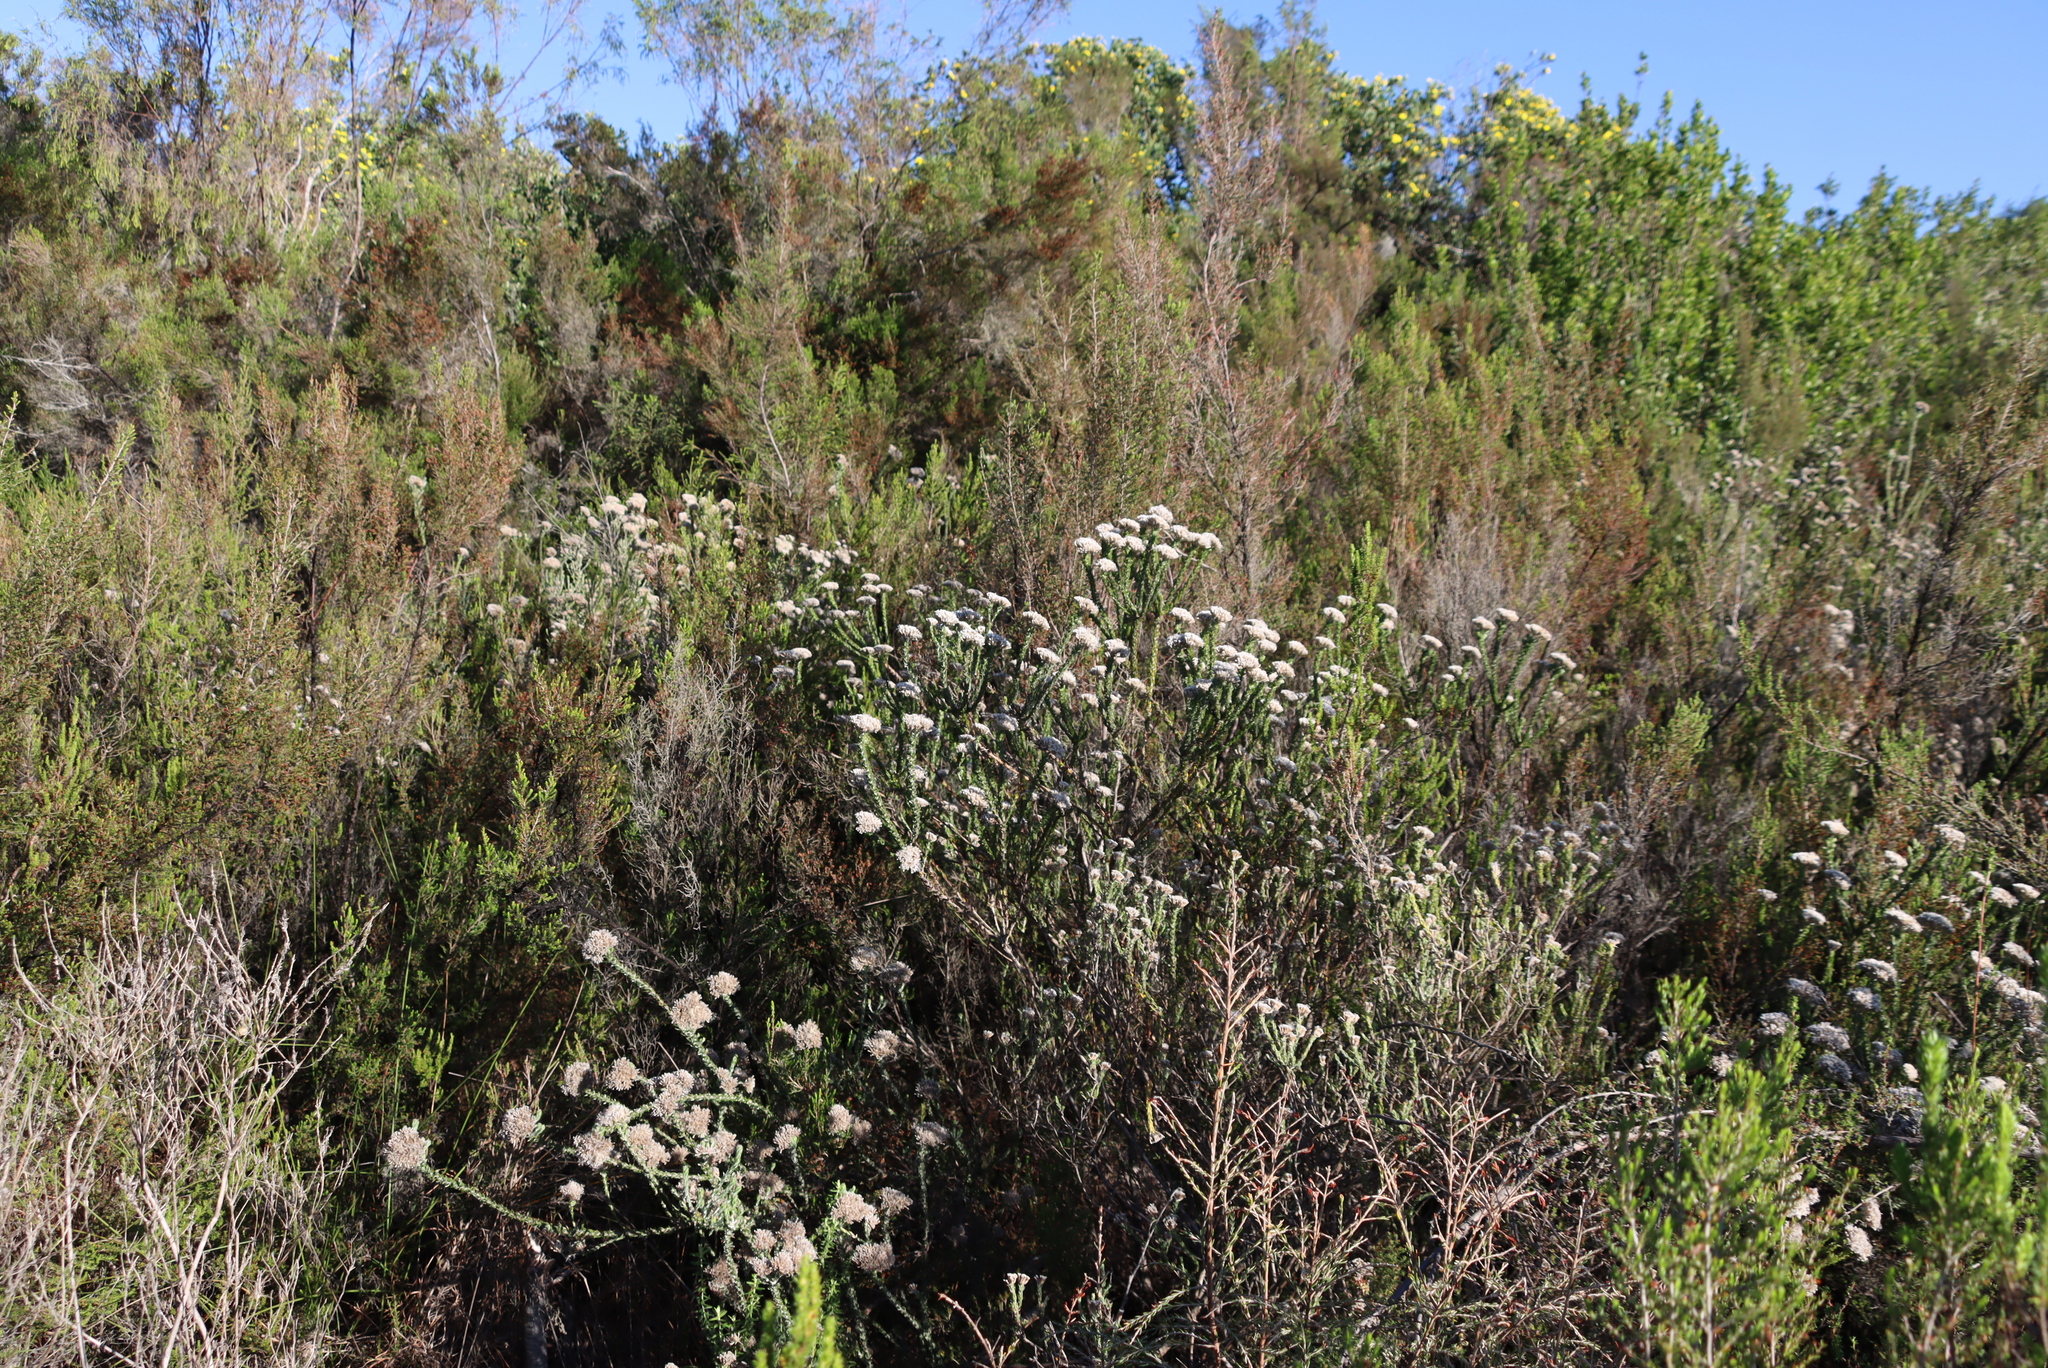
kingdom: Plantae
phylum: Tracheophyta
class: Magnoliopsida
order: Asterales
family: Asteraceae
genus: Metalasia
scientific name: Metalasia pungens
